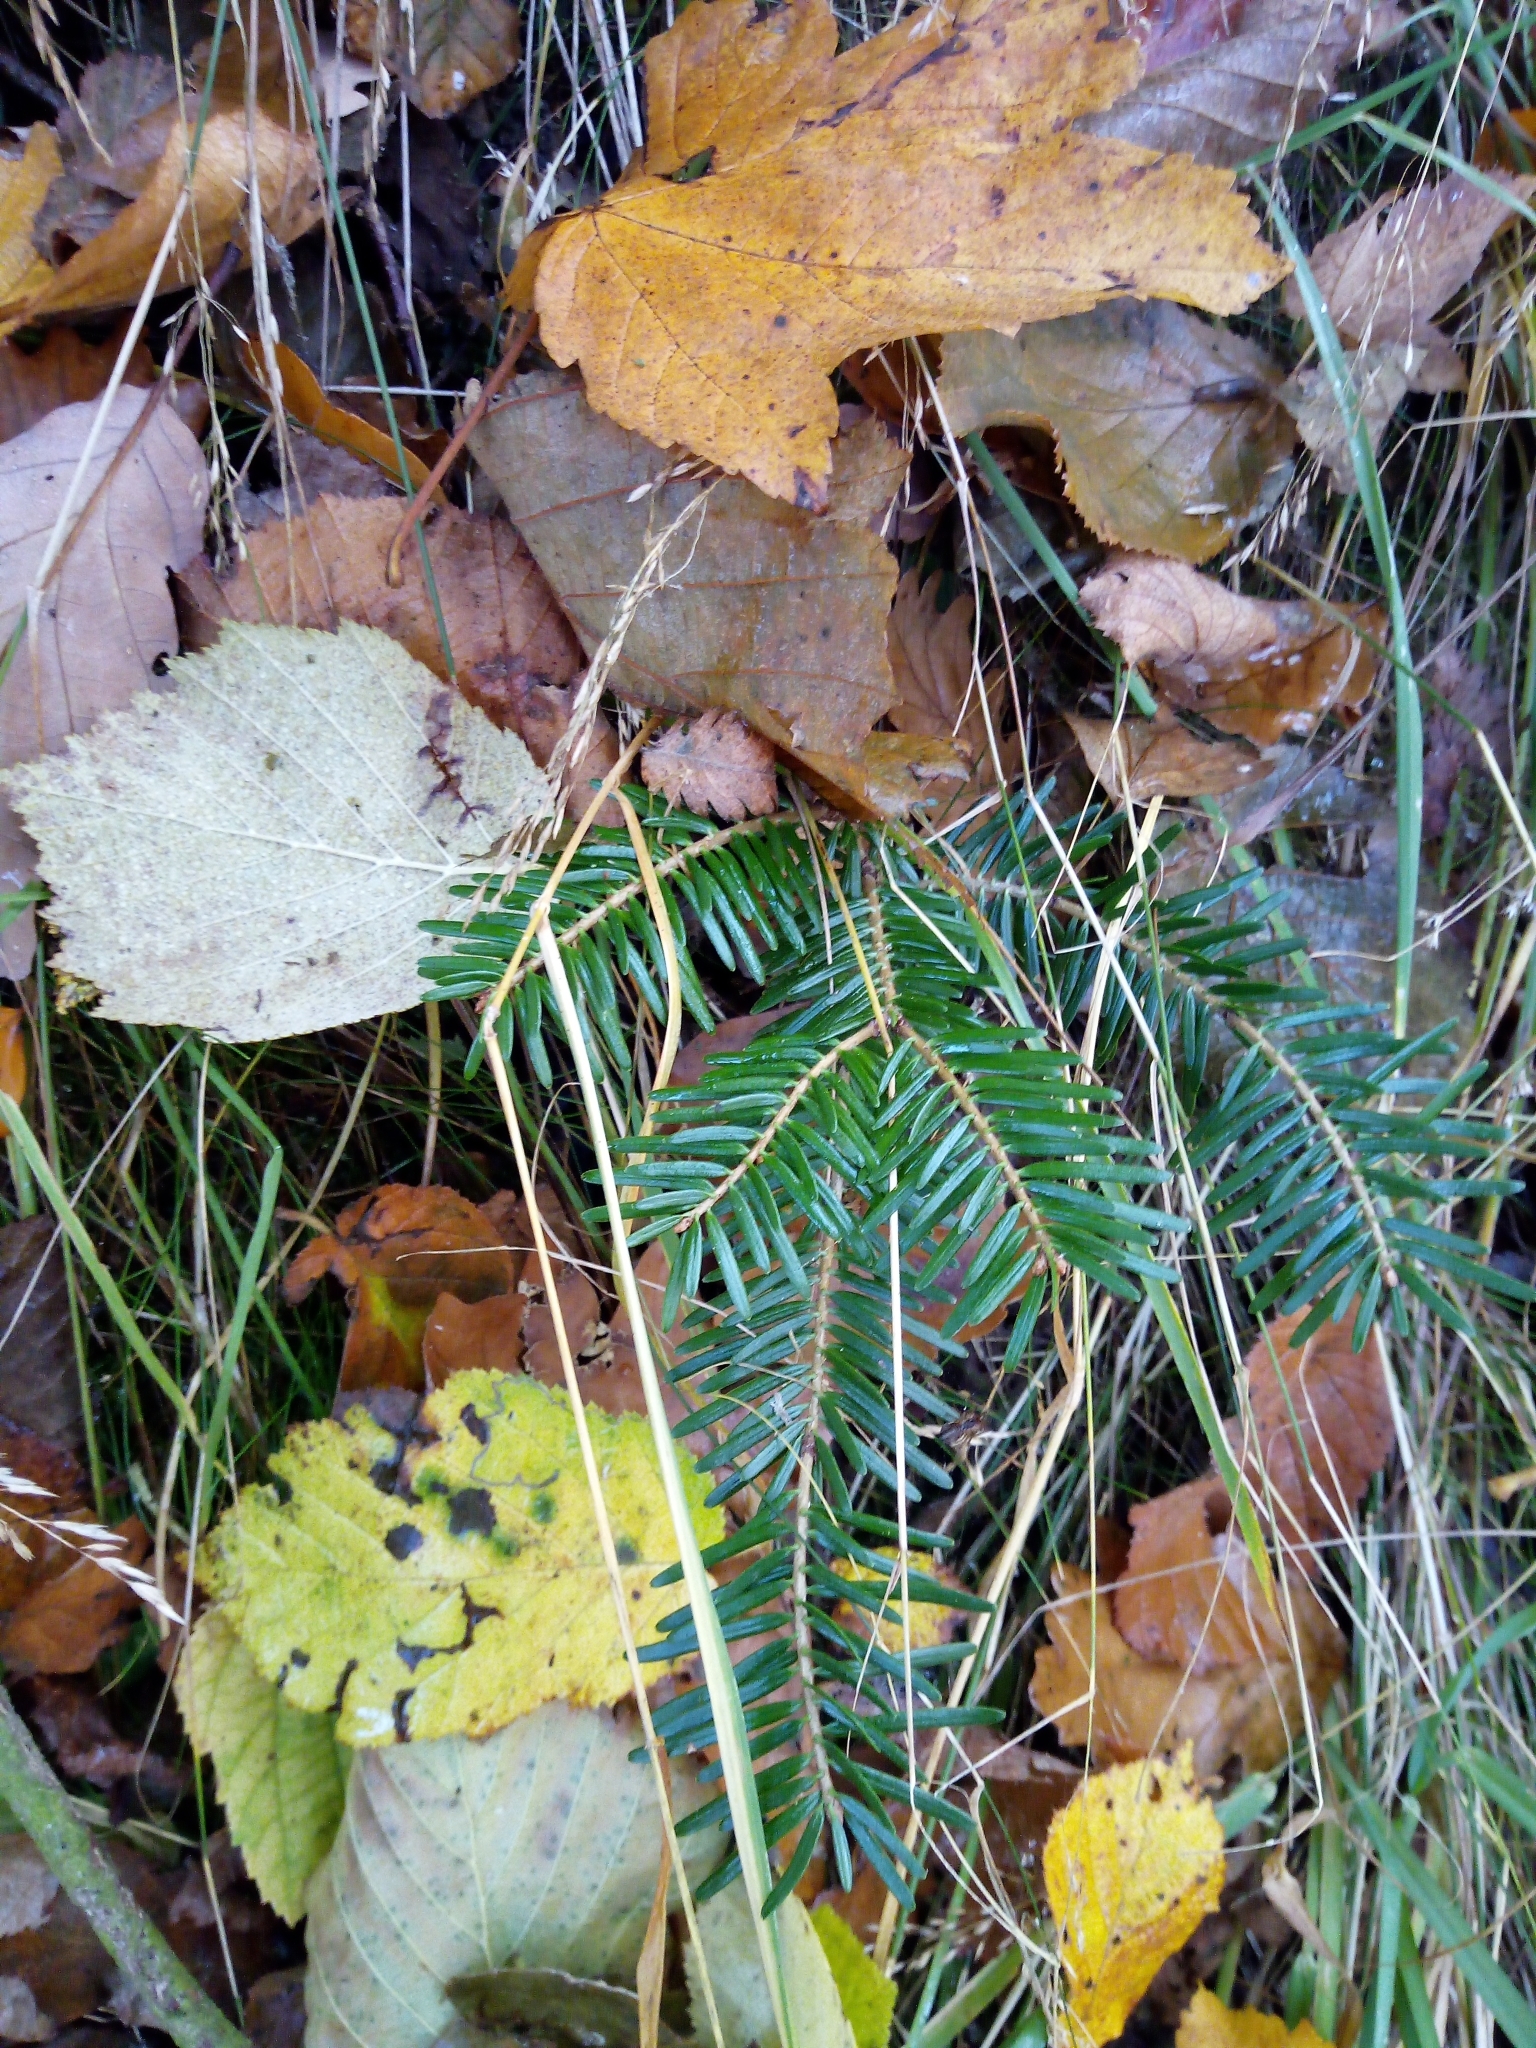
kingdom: Plantae
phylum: Tracheophyta
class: Pinopsida
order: Pinales
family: Pinaceae
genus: Abies
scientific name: Abies alba
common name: Silver fir
